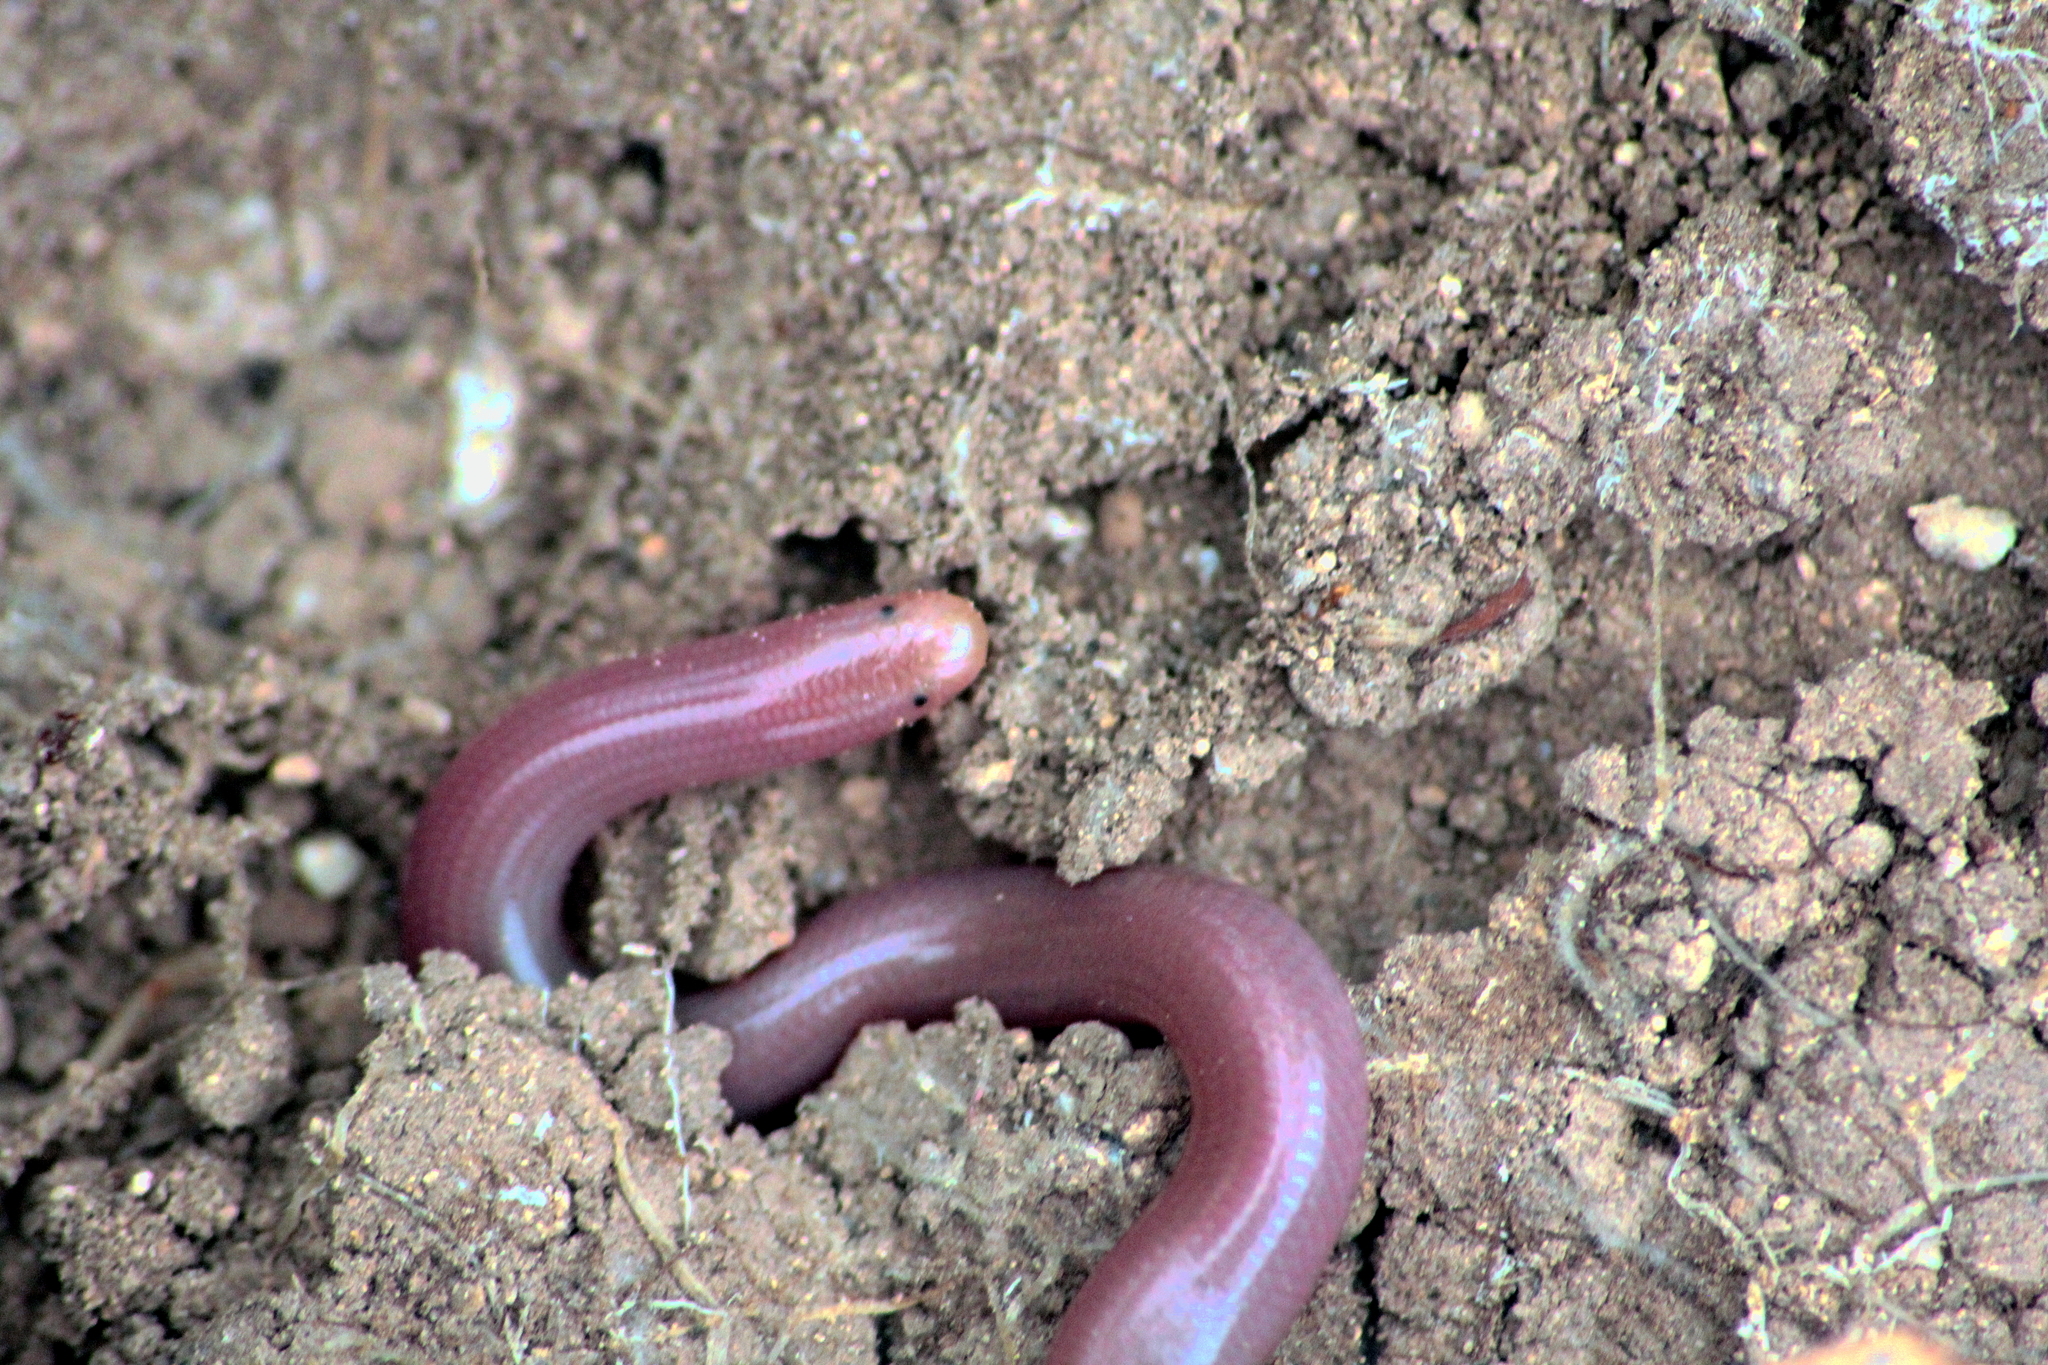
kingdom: Animalia
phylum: Chordata
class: Squamata
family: Typhlopidae
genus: Xerotyphlops
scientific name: Xerotyphlops vermicularis
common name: Eurasian blind snake
